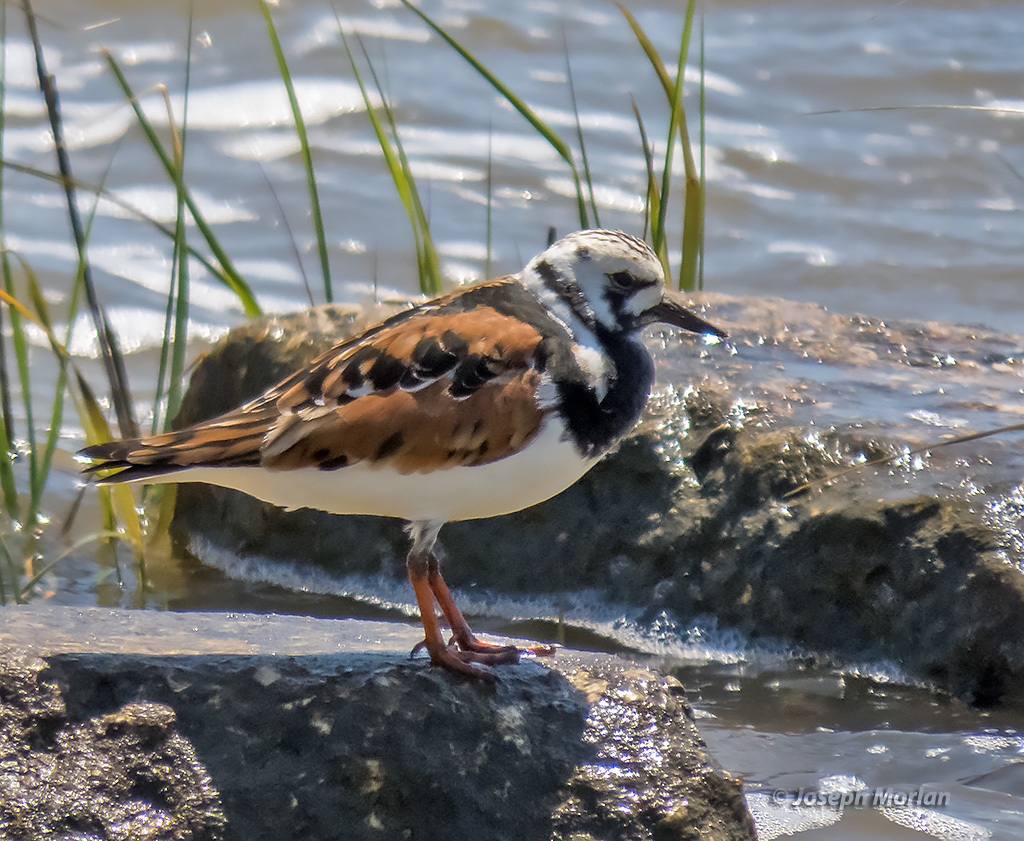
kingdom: Animalia
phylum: Chordata
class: Aves
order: Charadriiformes
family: Scolopacidae
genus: Arenaria
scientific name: Arenaria interpres
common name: Ruddy turnstone
